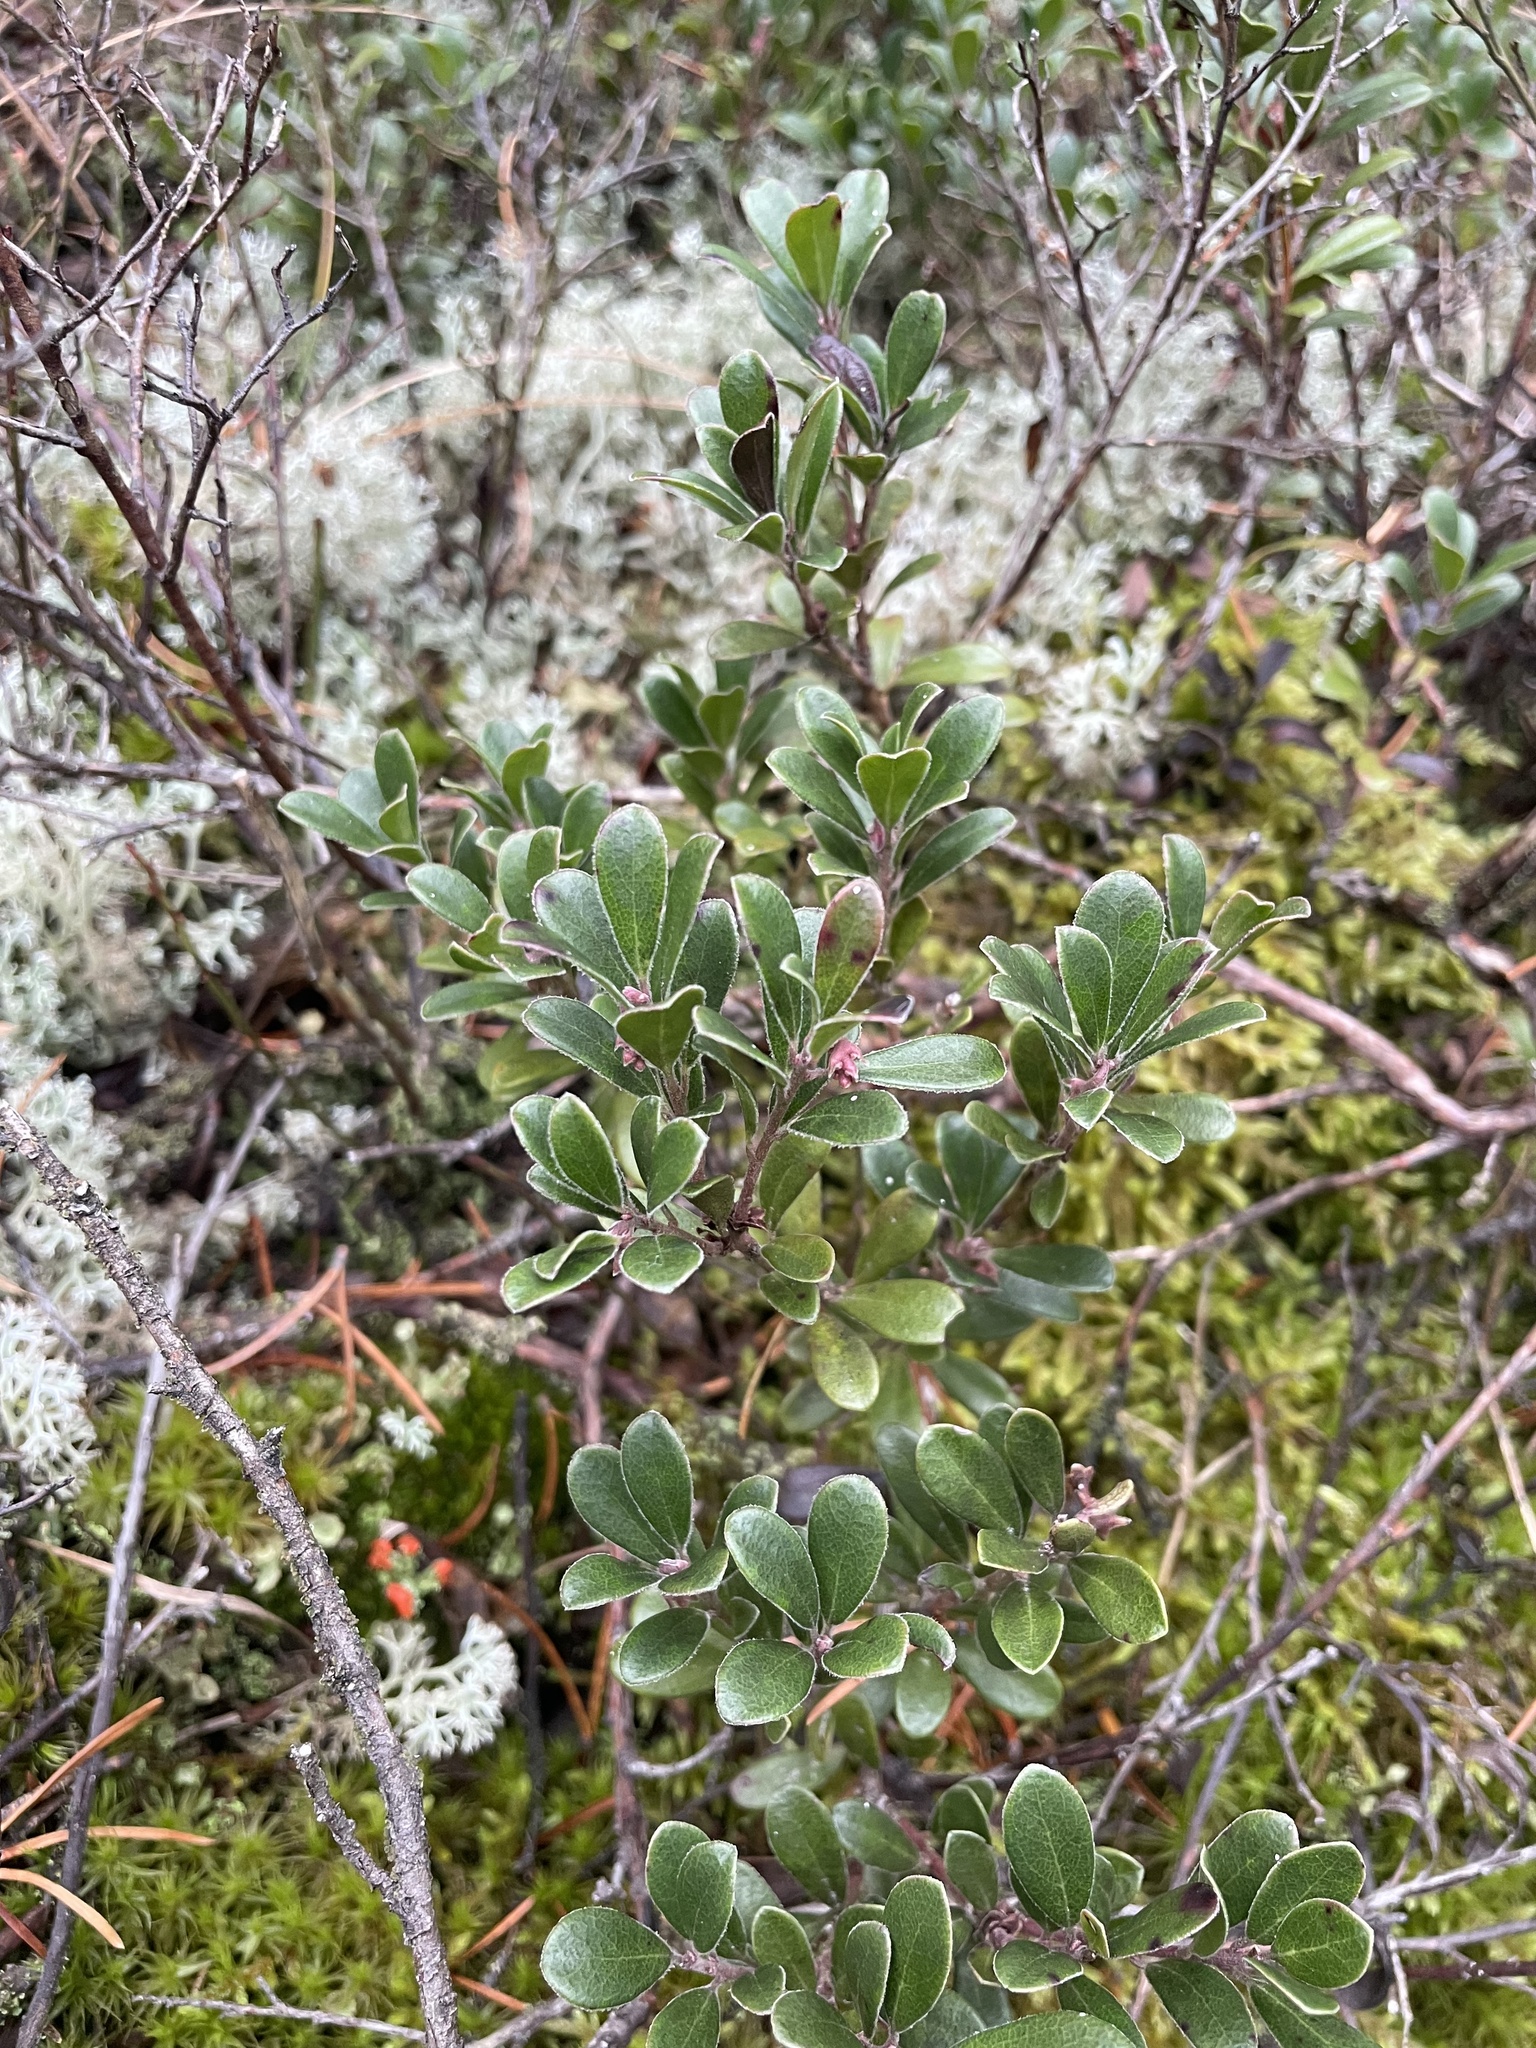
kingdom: Plantae
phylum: Tracheophyta
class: Magnoliopsida
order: Ericales
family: Ericaceae
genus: Arctostaphylos
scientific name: Arctostaphylos uva-ursi
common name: Bearberry
